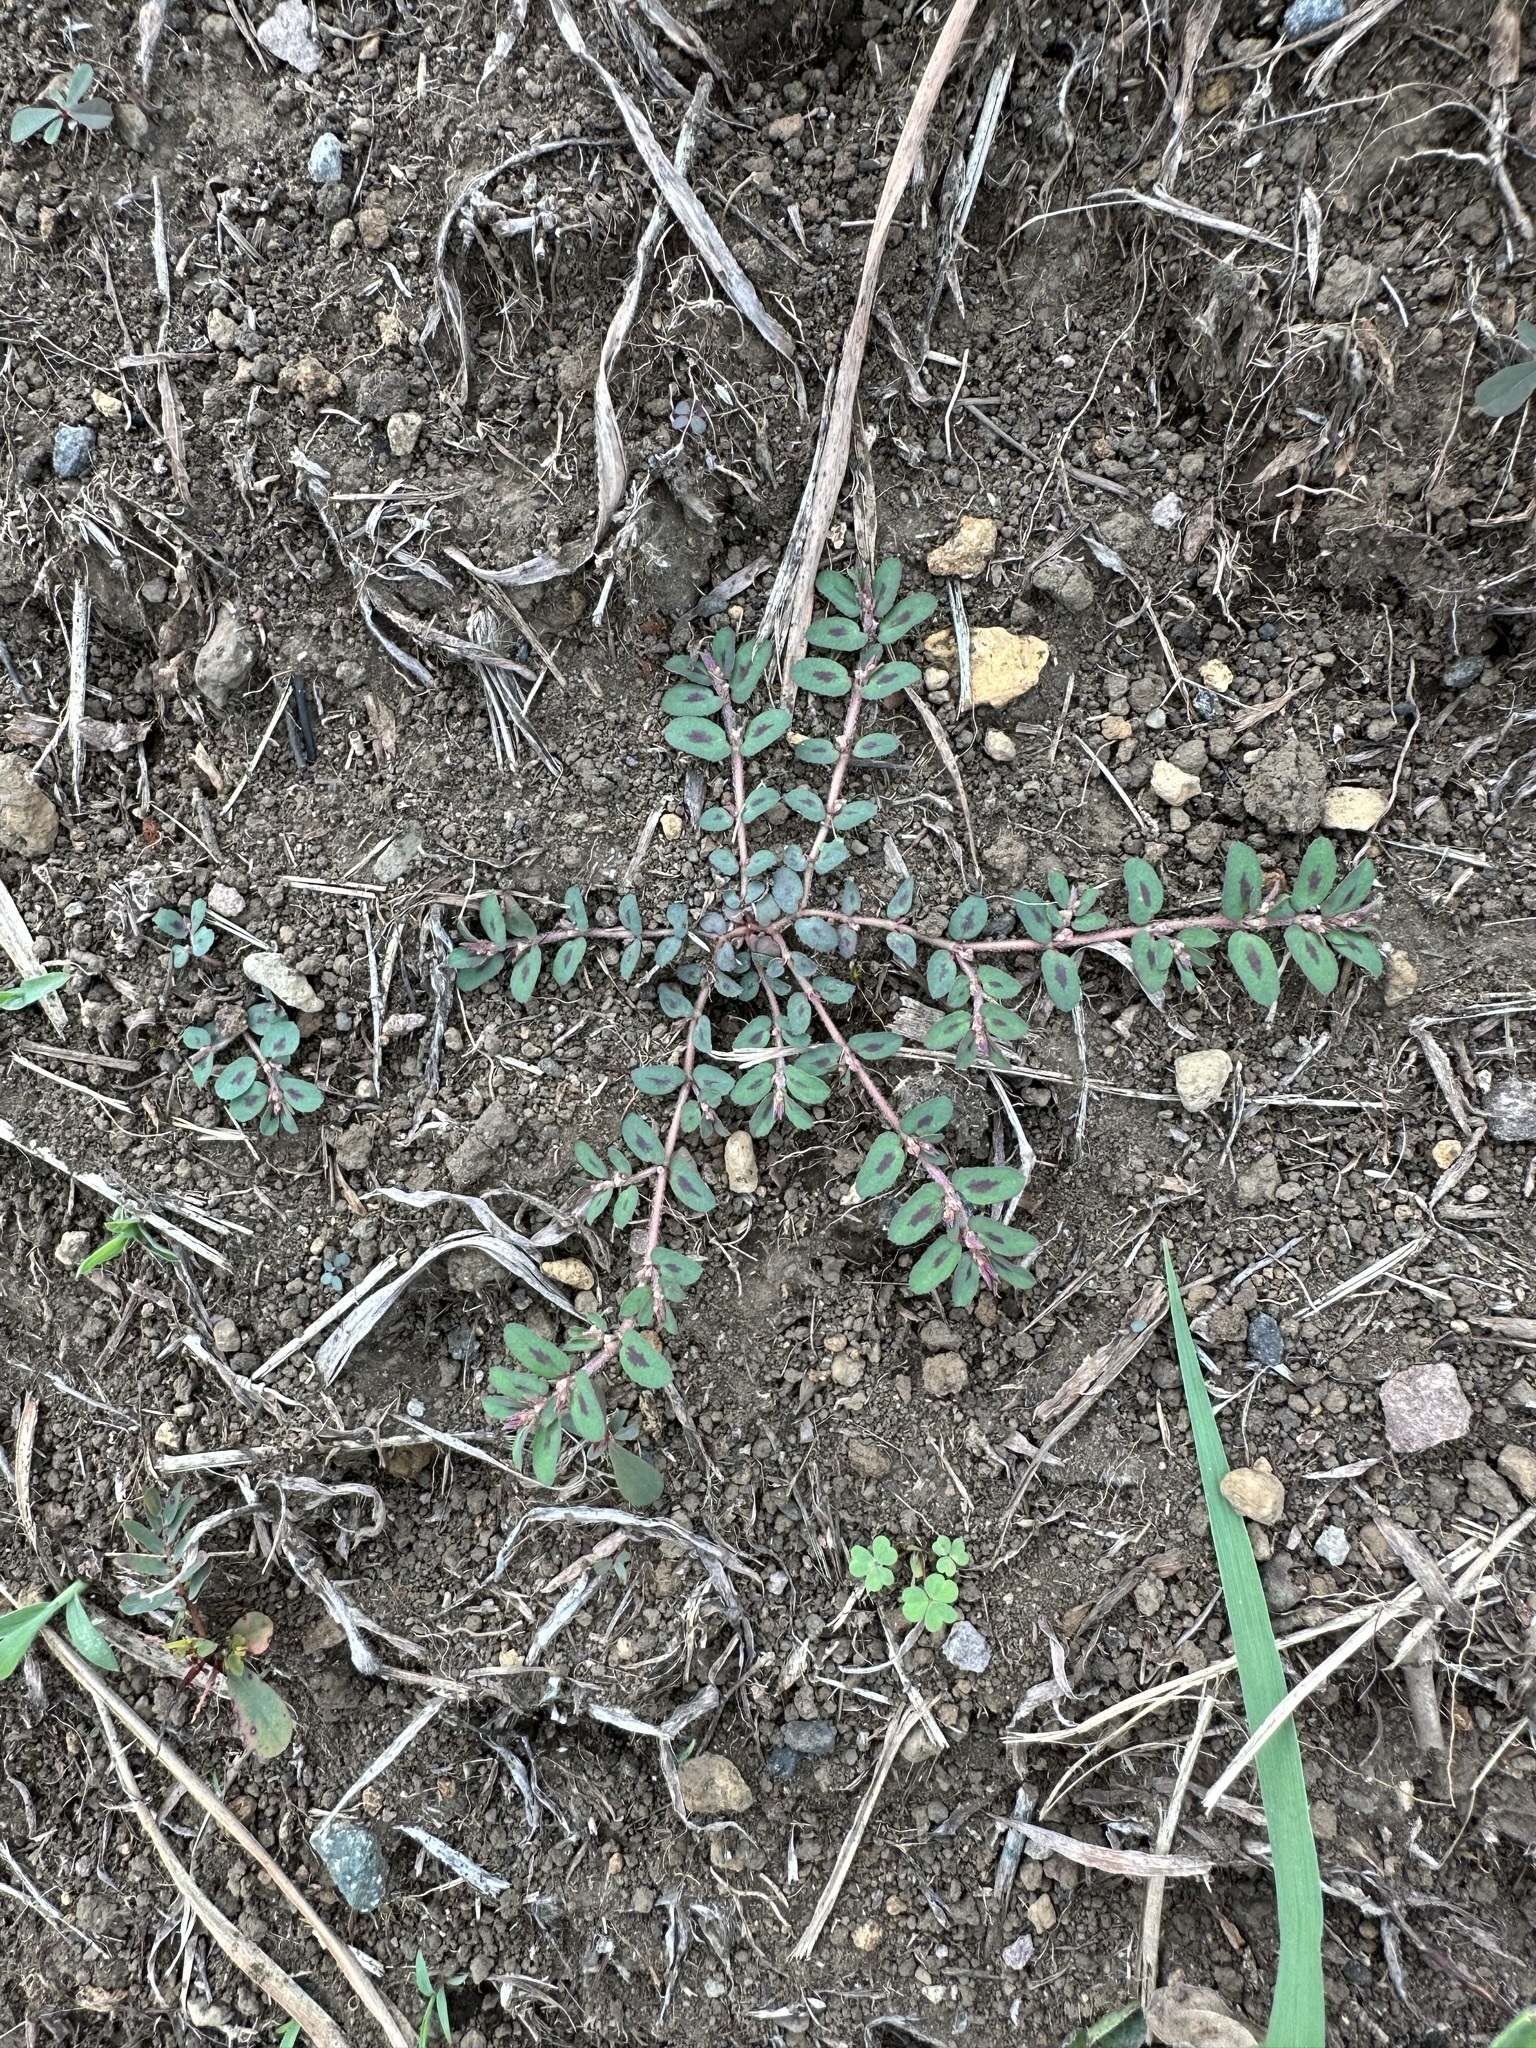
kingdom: Plantae
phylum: Tracheophyta
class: Magnoliopsida
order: Malpighiales
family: Euphorbiaceae
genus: Euphorbia
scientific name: Euphorbia maculata
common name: Spotted spurge
